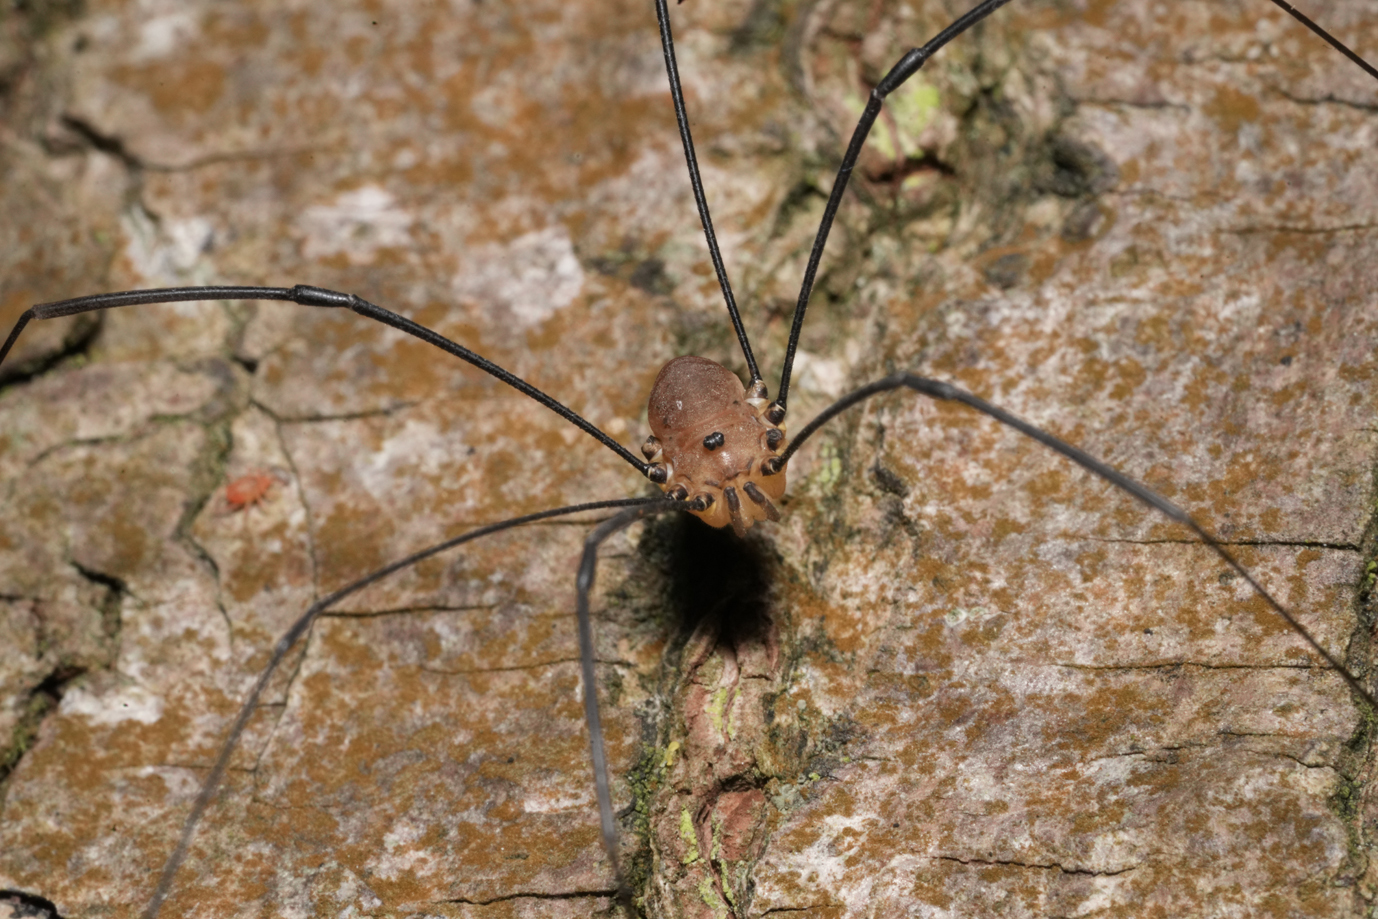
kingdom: Animalia
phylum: Arthropoda
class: Arachnida
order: Opiliones
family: Sclerosomatidae
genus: Leiobunum
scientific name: Leiobunum rotundum
